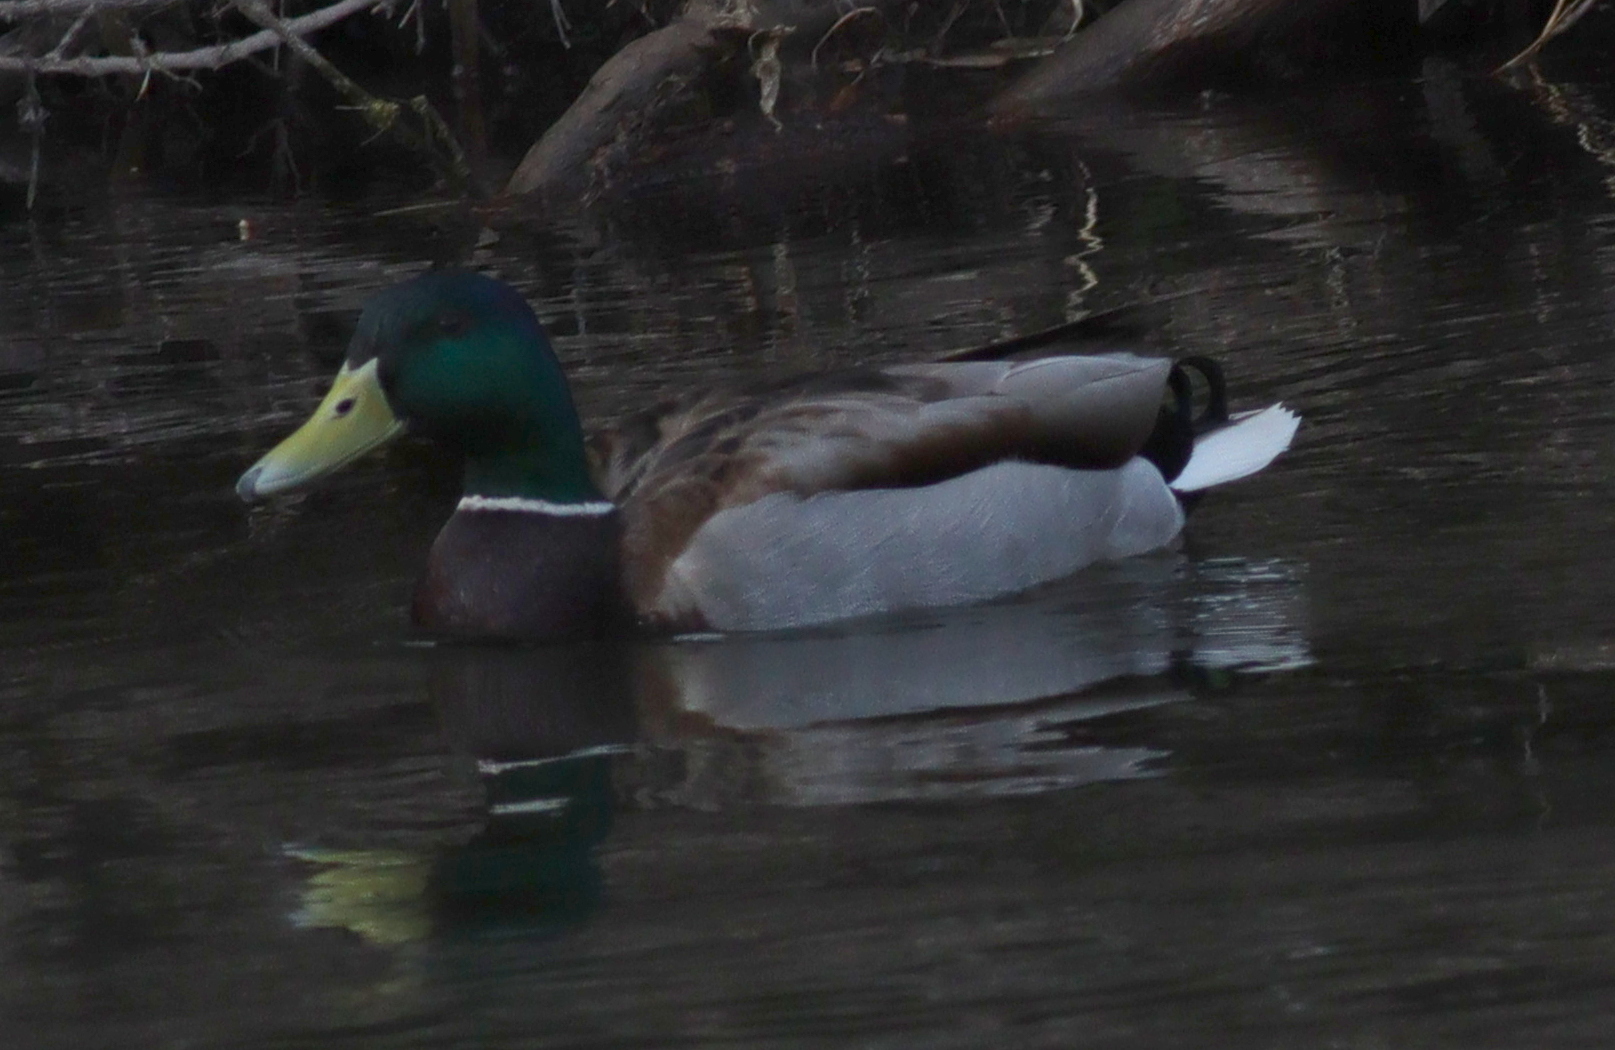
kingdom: Animalia
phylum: Chordata
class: Aves
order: Anseriformes
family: Anatidae
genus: Anas
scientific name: Anas platyrhynchos
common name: Mallard
